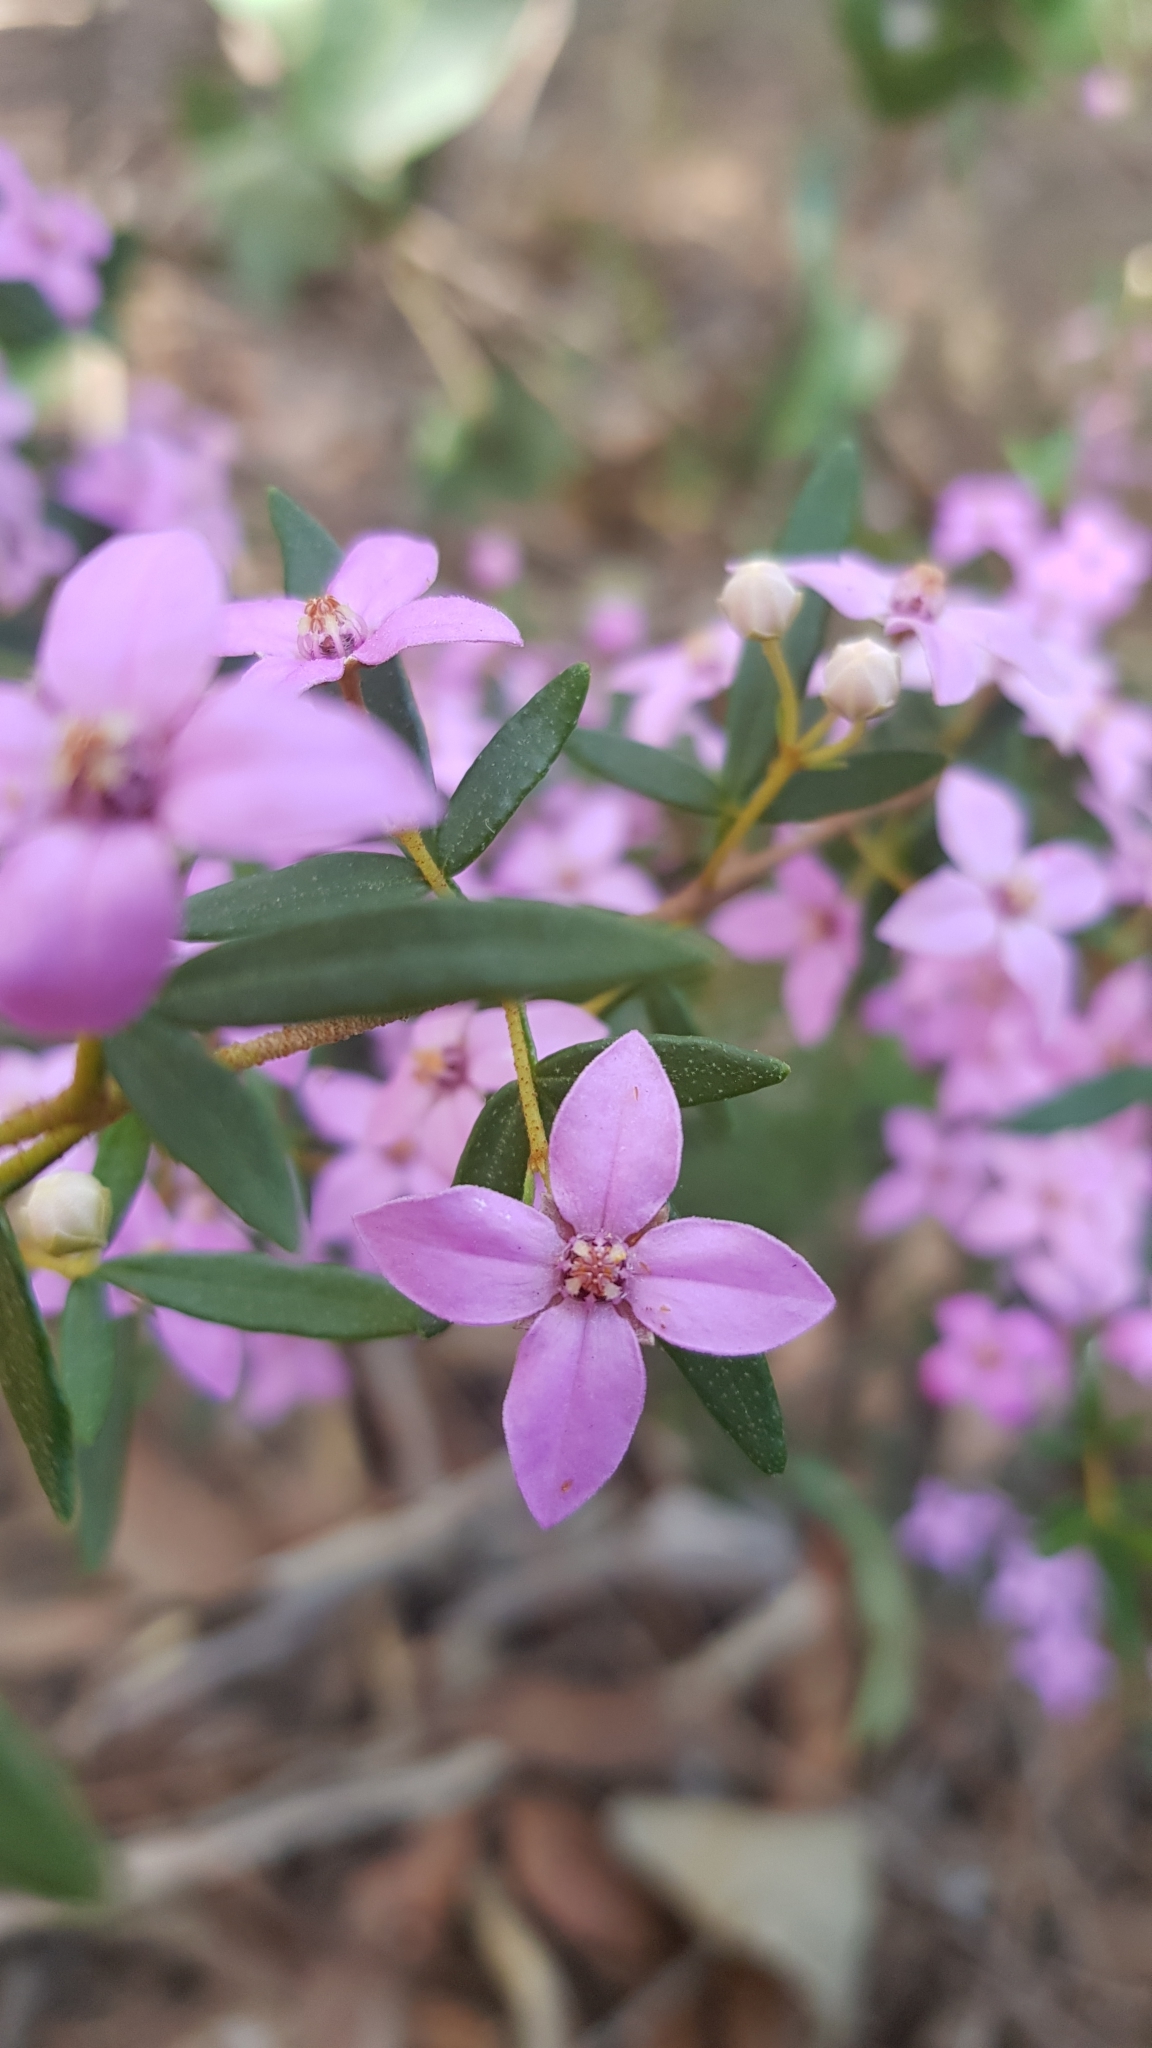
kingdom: Plantae
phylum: Tracheophyta
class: Magnoliopsida
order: Sapindales
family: Rutaceae
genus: Boronia
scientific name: Boronia ledifolia
